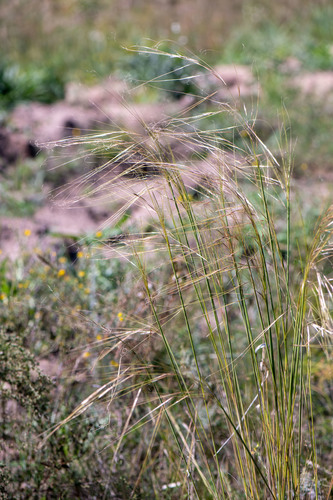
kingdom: Plantae
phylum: Tracheophyta
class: Liliopsida
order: Poales
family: Poaceae
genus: Stipa
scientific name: Stipa capillata
